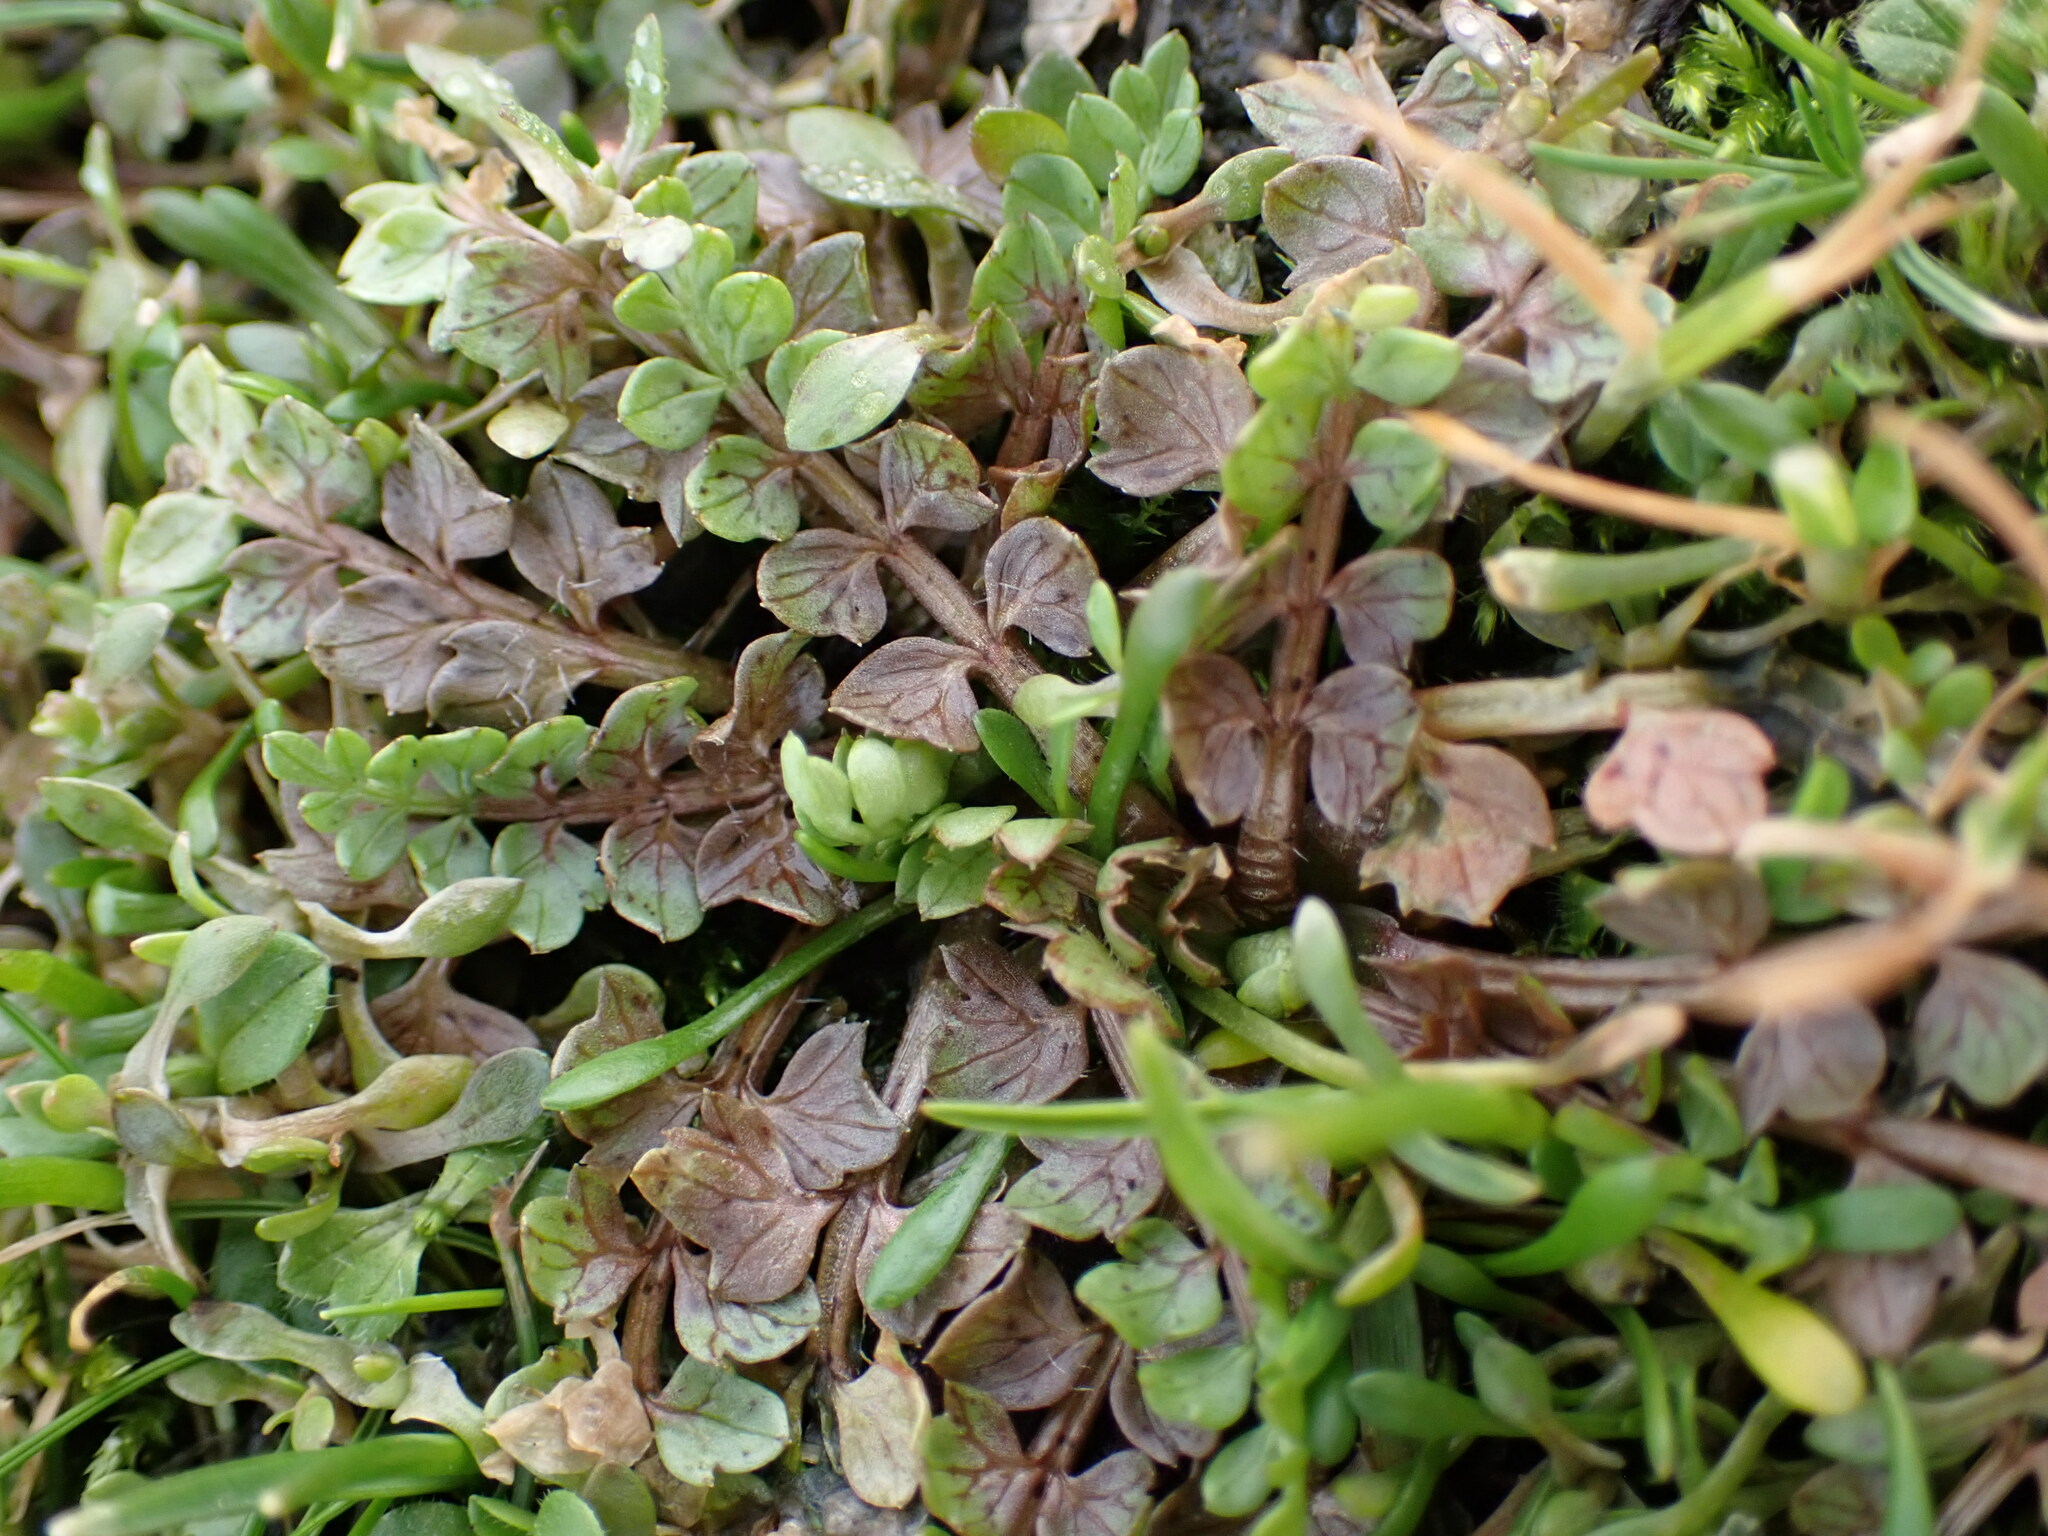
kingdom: Plantae
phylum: Tracheophyta
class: Magnoliopsida
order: Brassicales
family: Limnanthaceae
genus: Limnanthes
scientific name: Limnanthes macounii
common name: Macoun's meadowfoam
